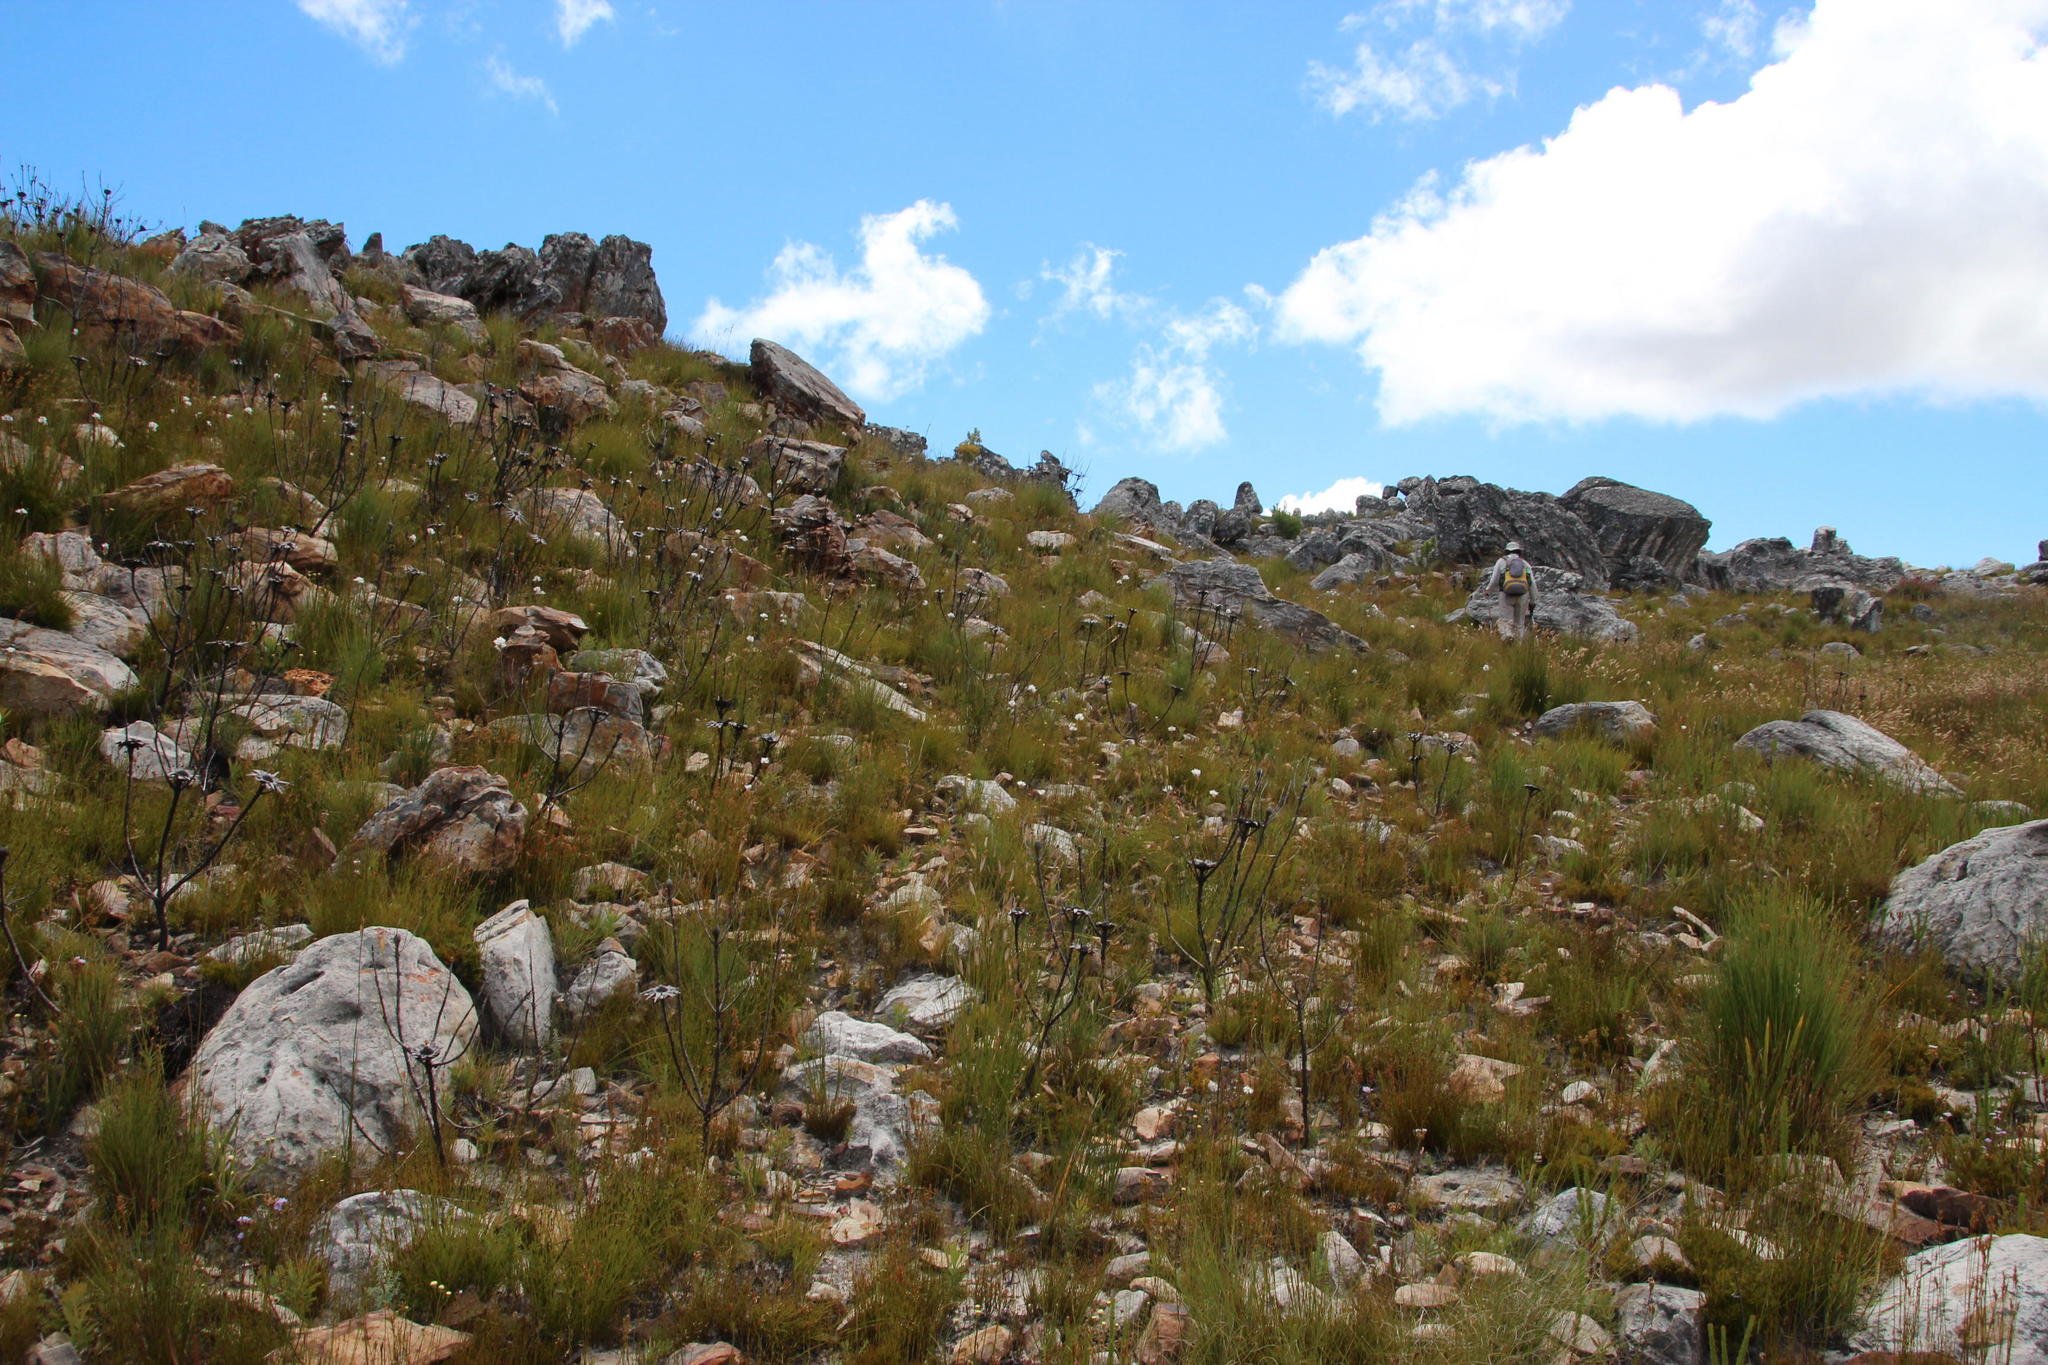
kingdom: Plantae
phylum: Tracheophyta
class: Magnoliopsida
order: Proteales
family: Proteaceae
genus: Protea
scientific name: Protea repens
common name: Sugarbush
